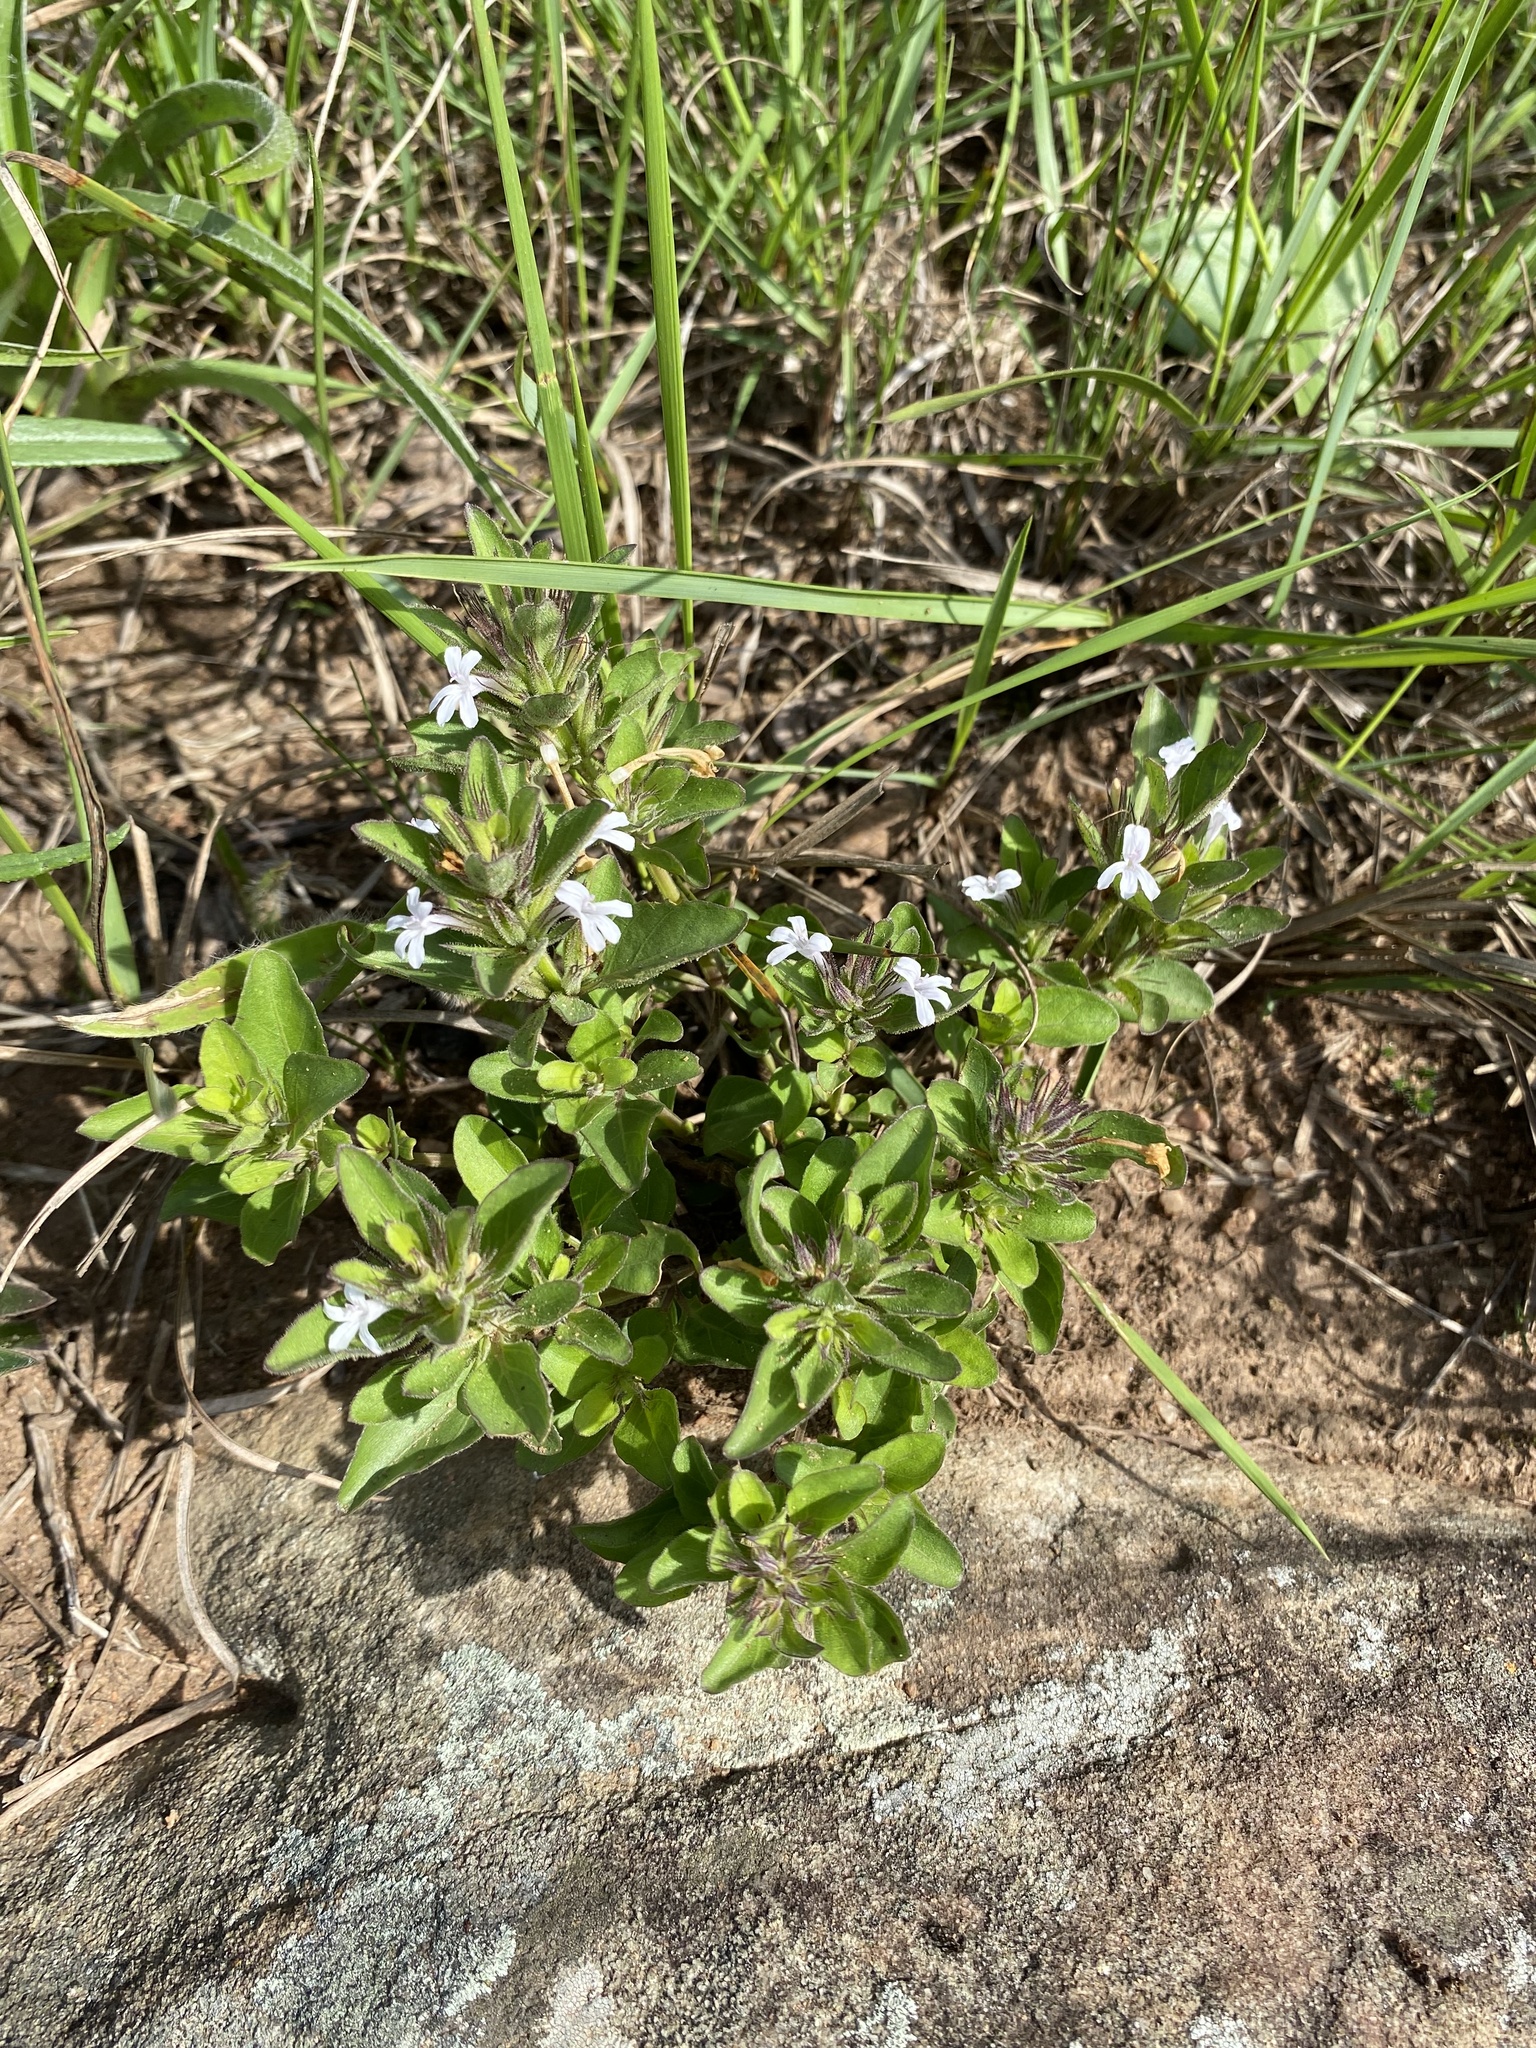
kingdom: Plantae
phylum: Tracheophyta
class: Magnoliopsida
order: Lamiales
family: Acanthaceae
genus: Dyschoriste
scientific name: Dyschoriste setigera
